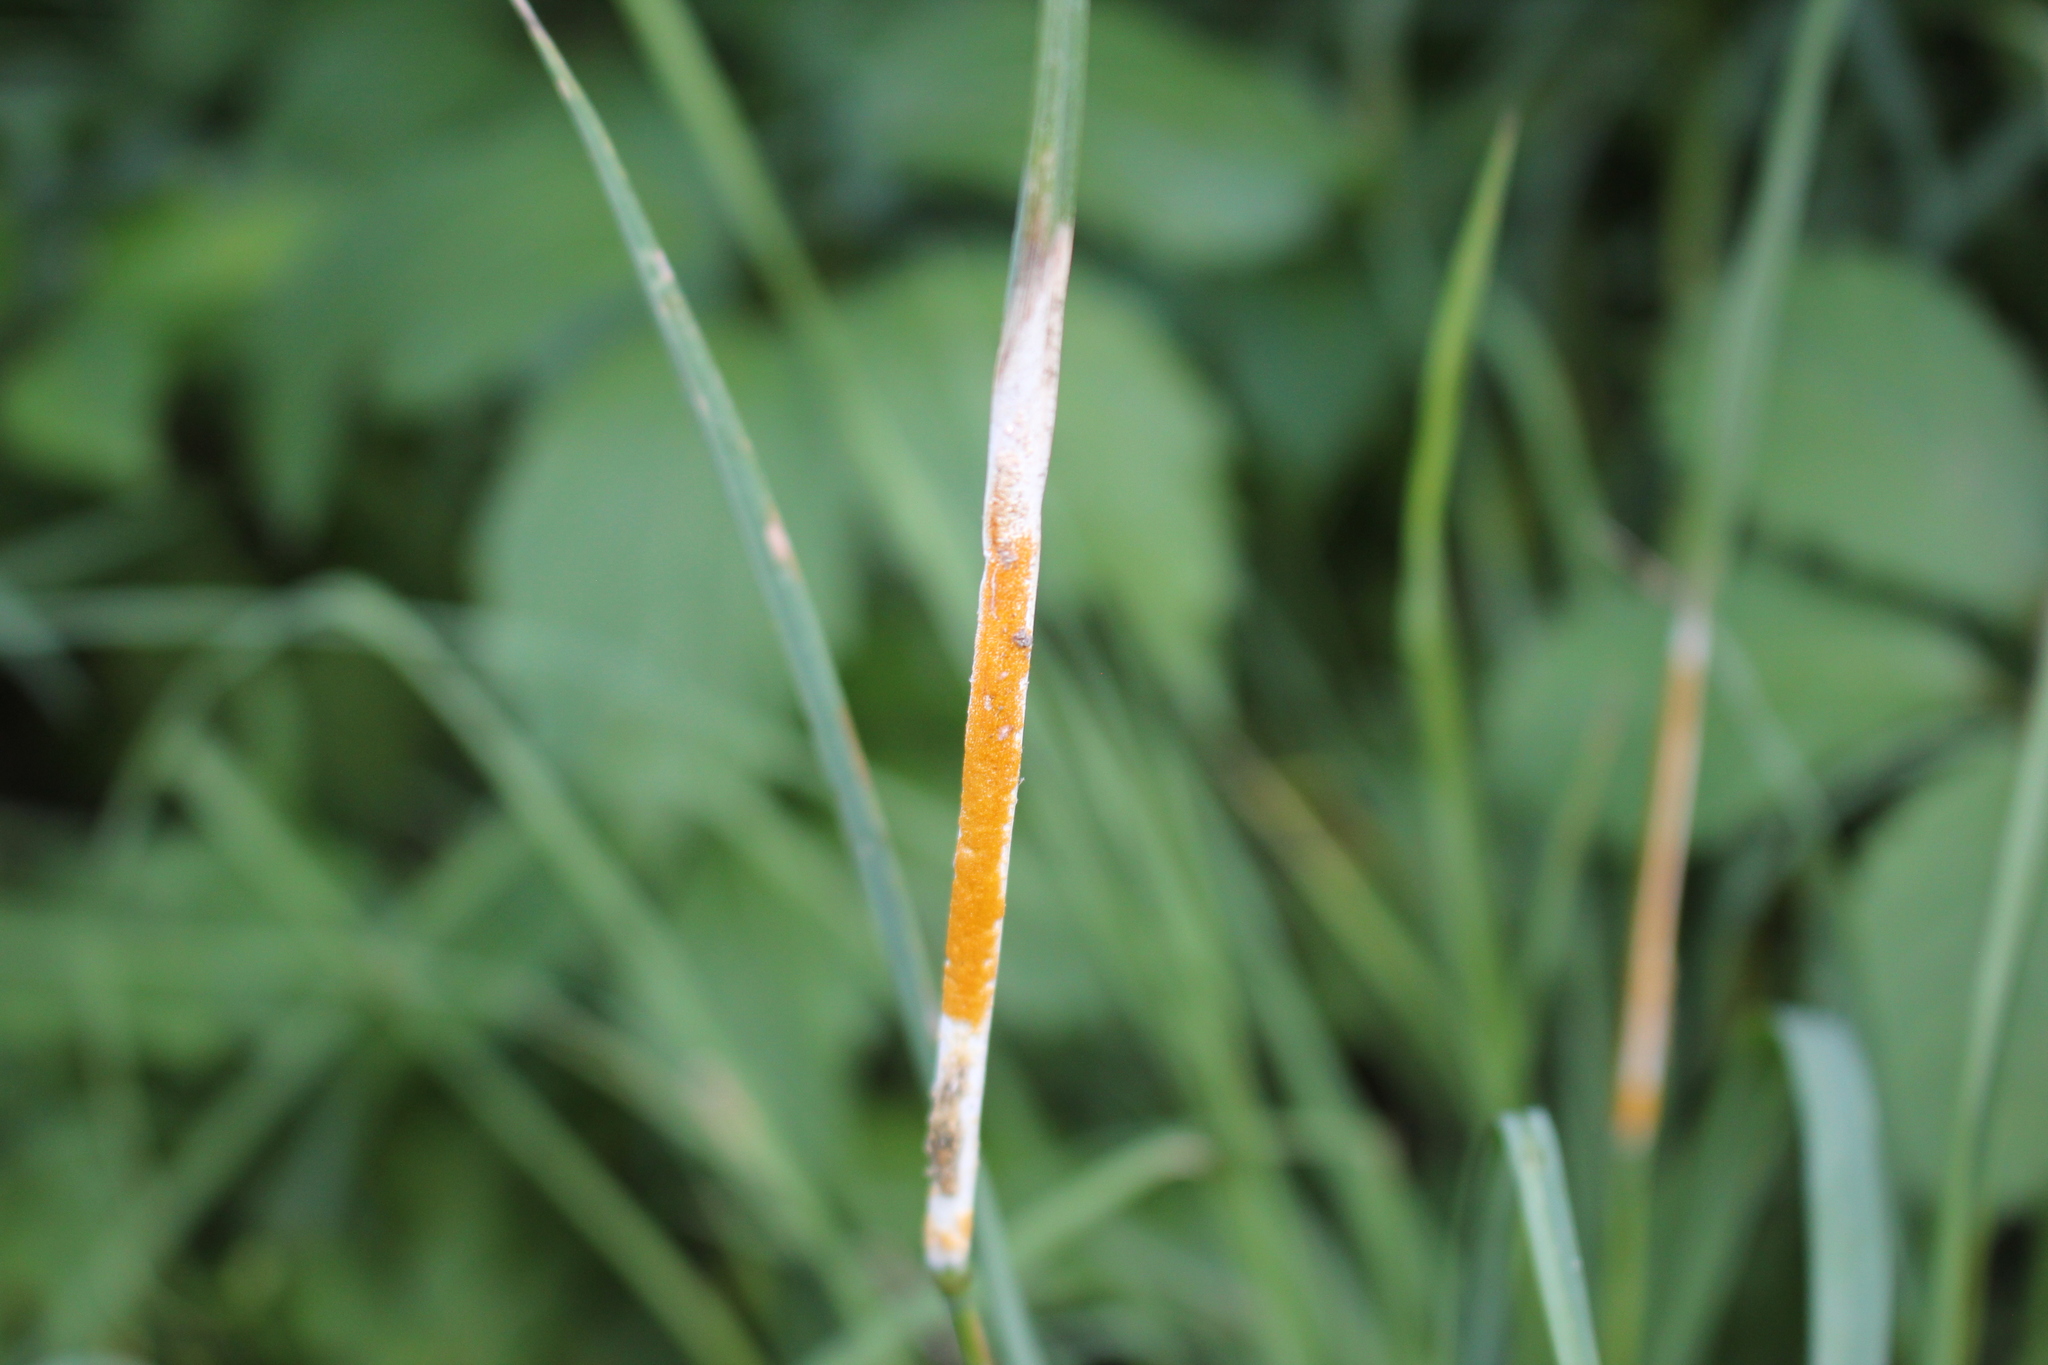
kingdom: Fungi
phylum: Ascomycota
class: Sordariomycetes
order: Hypocreales
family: Clavicipitaceae
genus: Epichloe
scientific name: Epichloe typhina
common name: Choke
